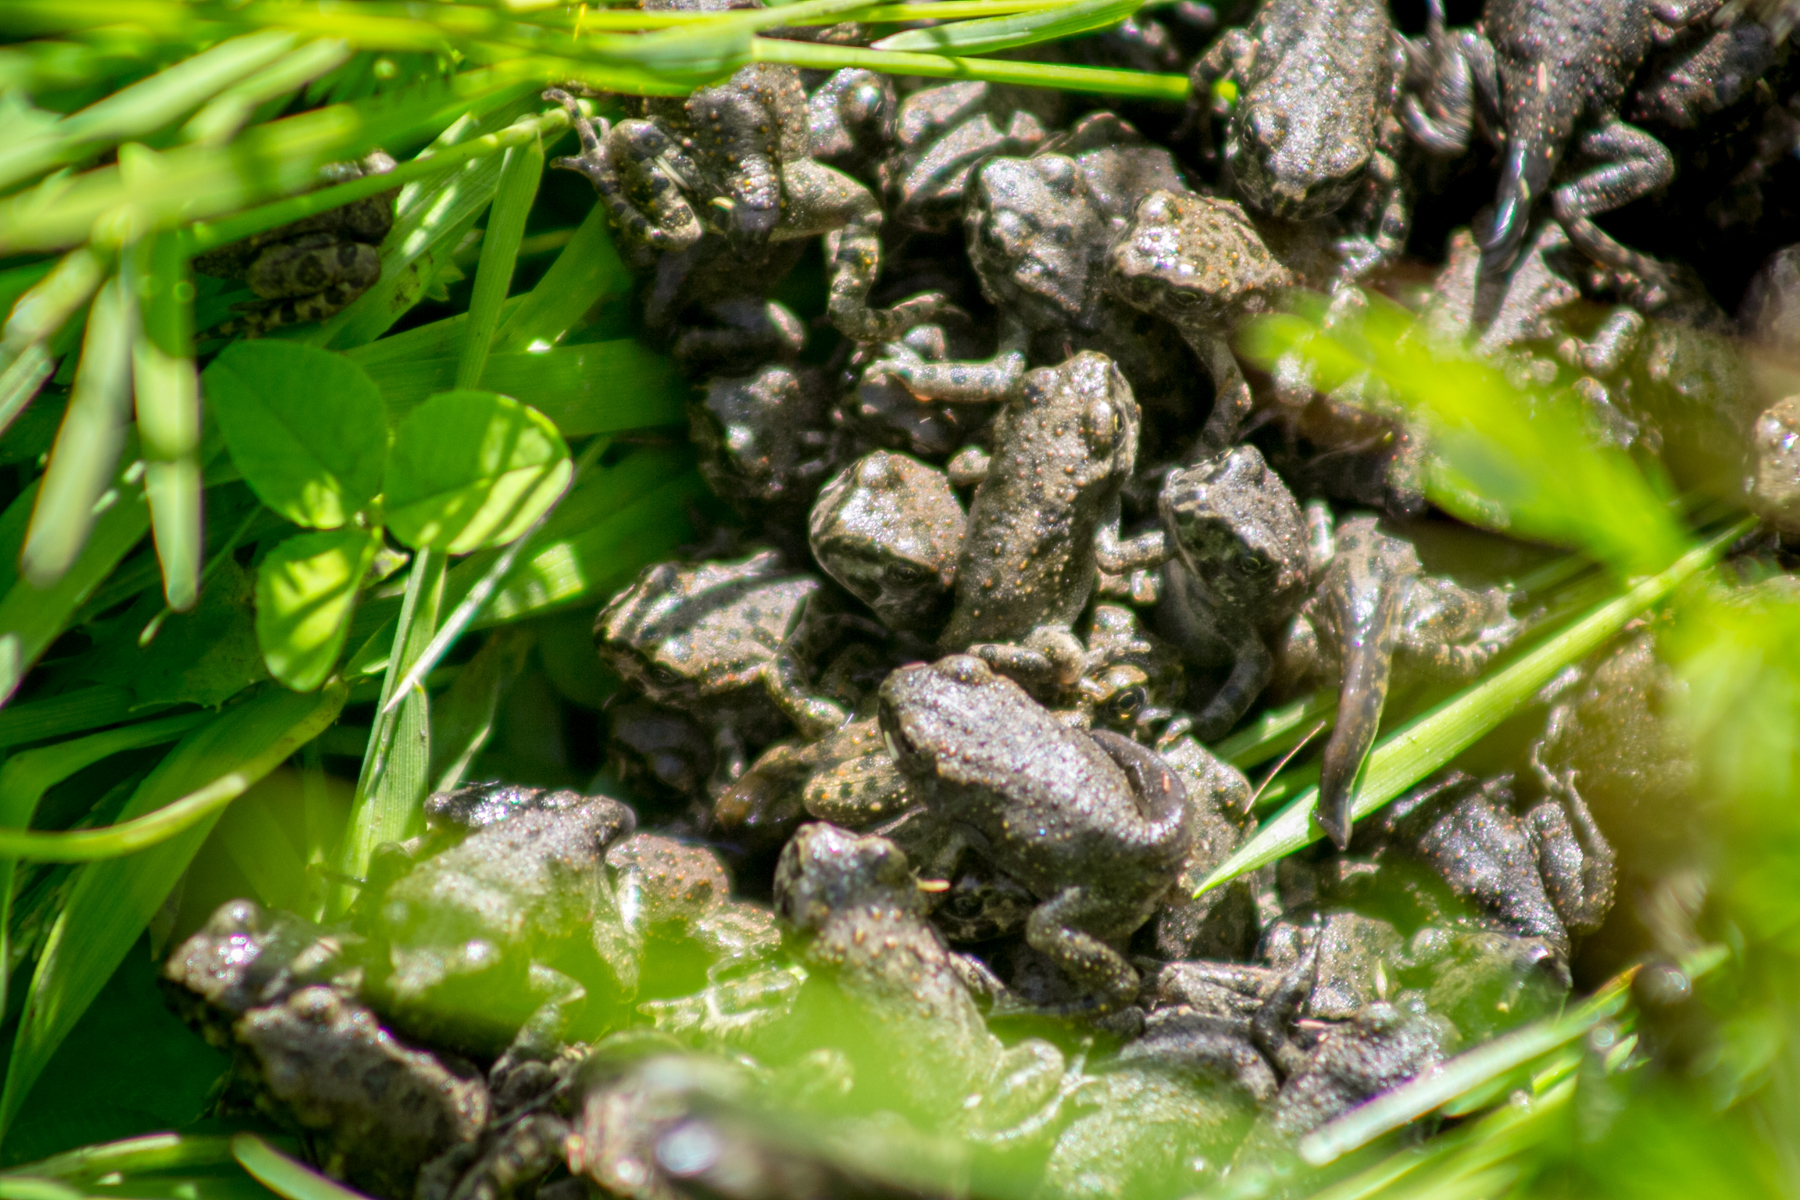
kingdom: Animalia
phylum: Chordata
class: Amphibia
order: Anura
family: Bufonidae
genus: Bufotes
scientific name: Bufotes viridis
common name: European green toad
